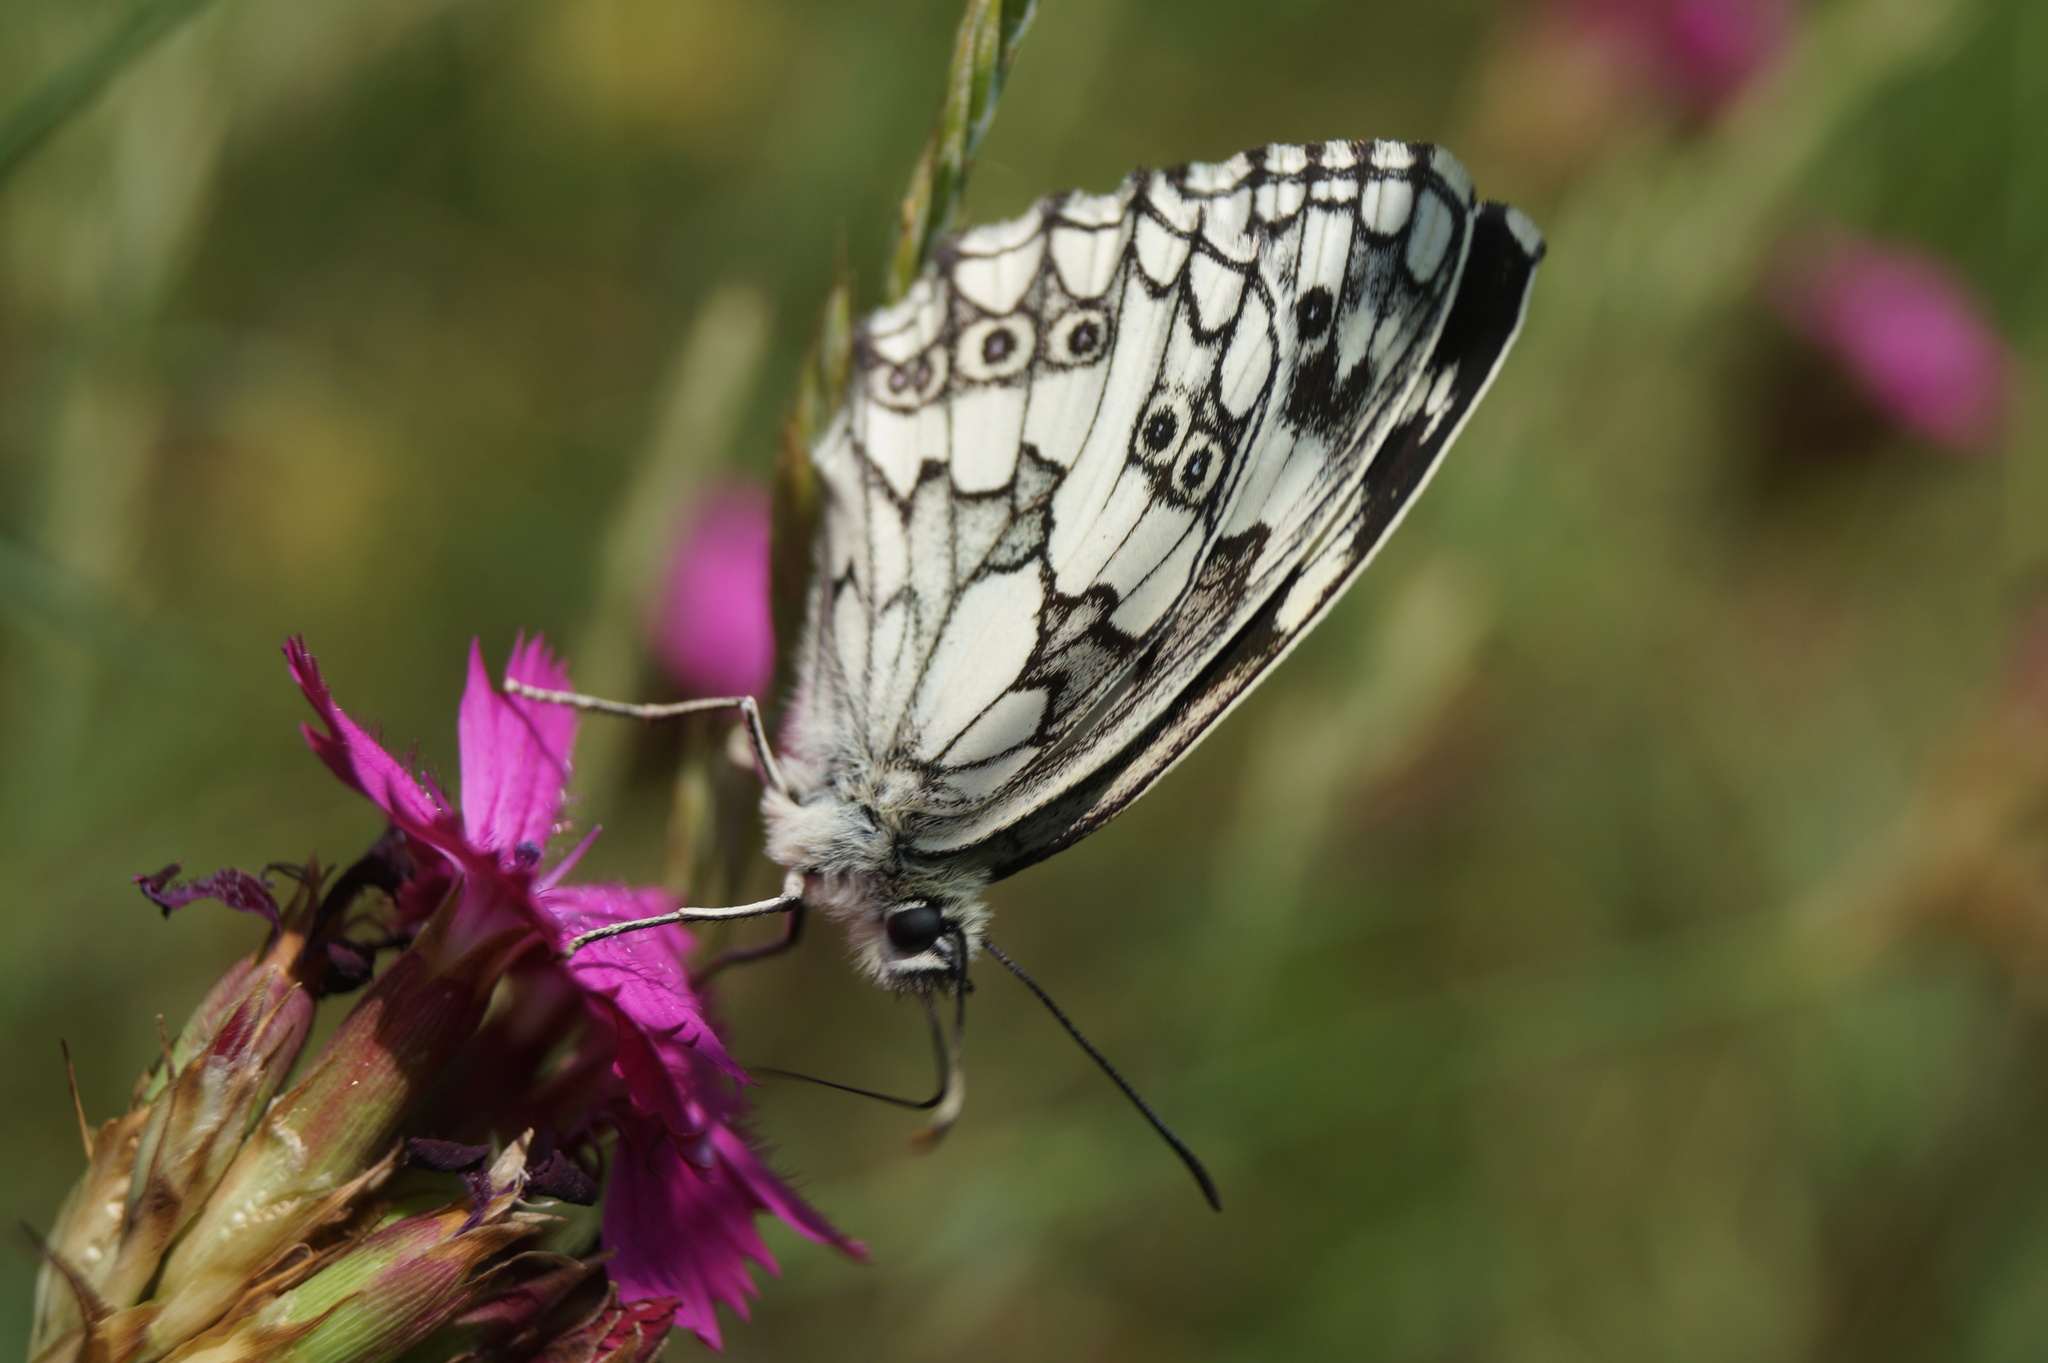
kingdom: Animalia
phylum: Arthropoda
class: Insecta
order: Lepidoptera
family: Nymphalidae
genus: Melanargia
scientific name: Melanargia galathea
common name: Marbled white
